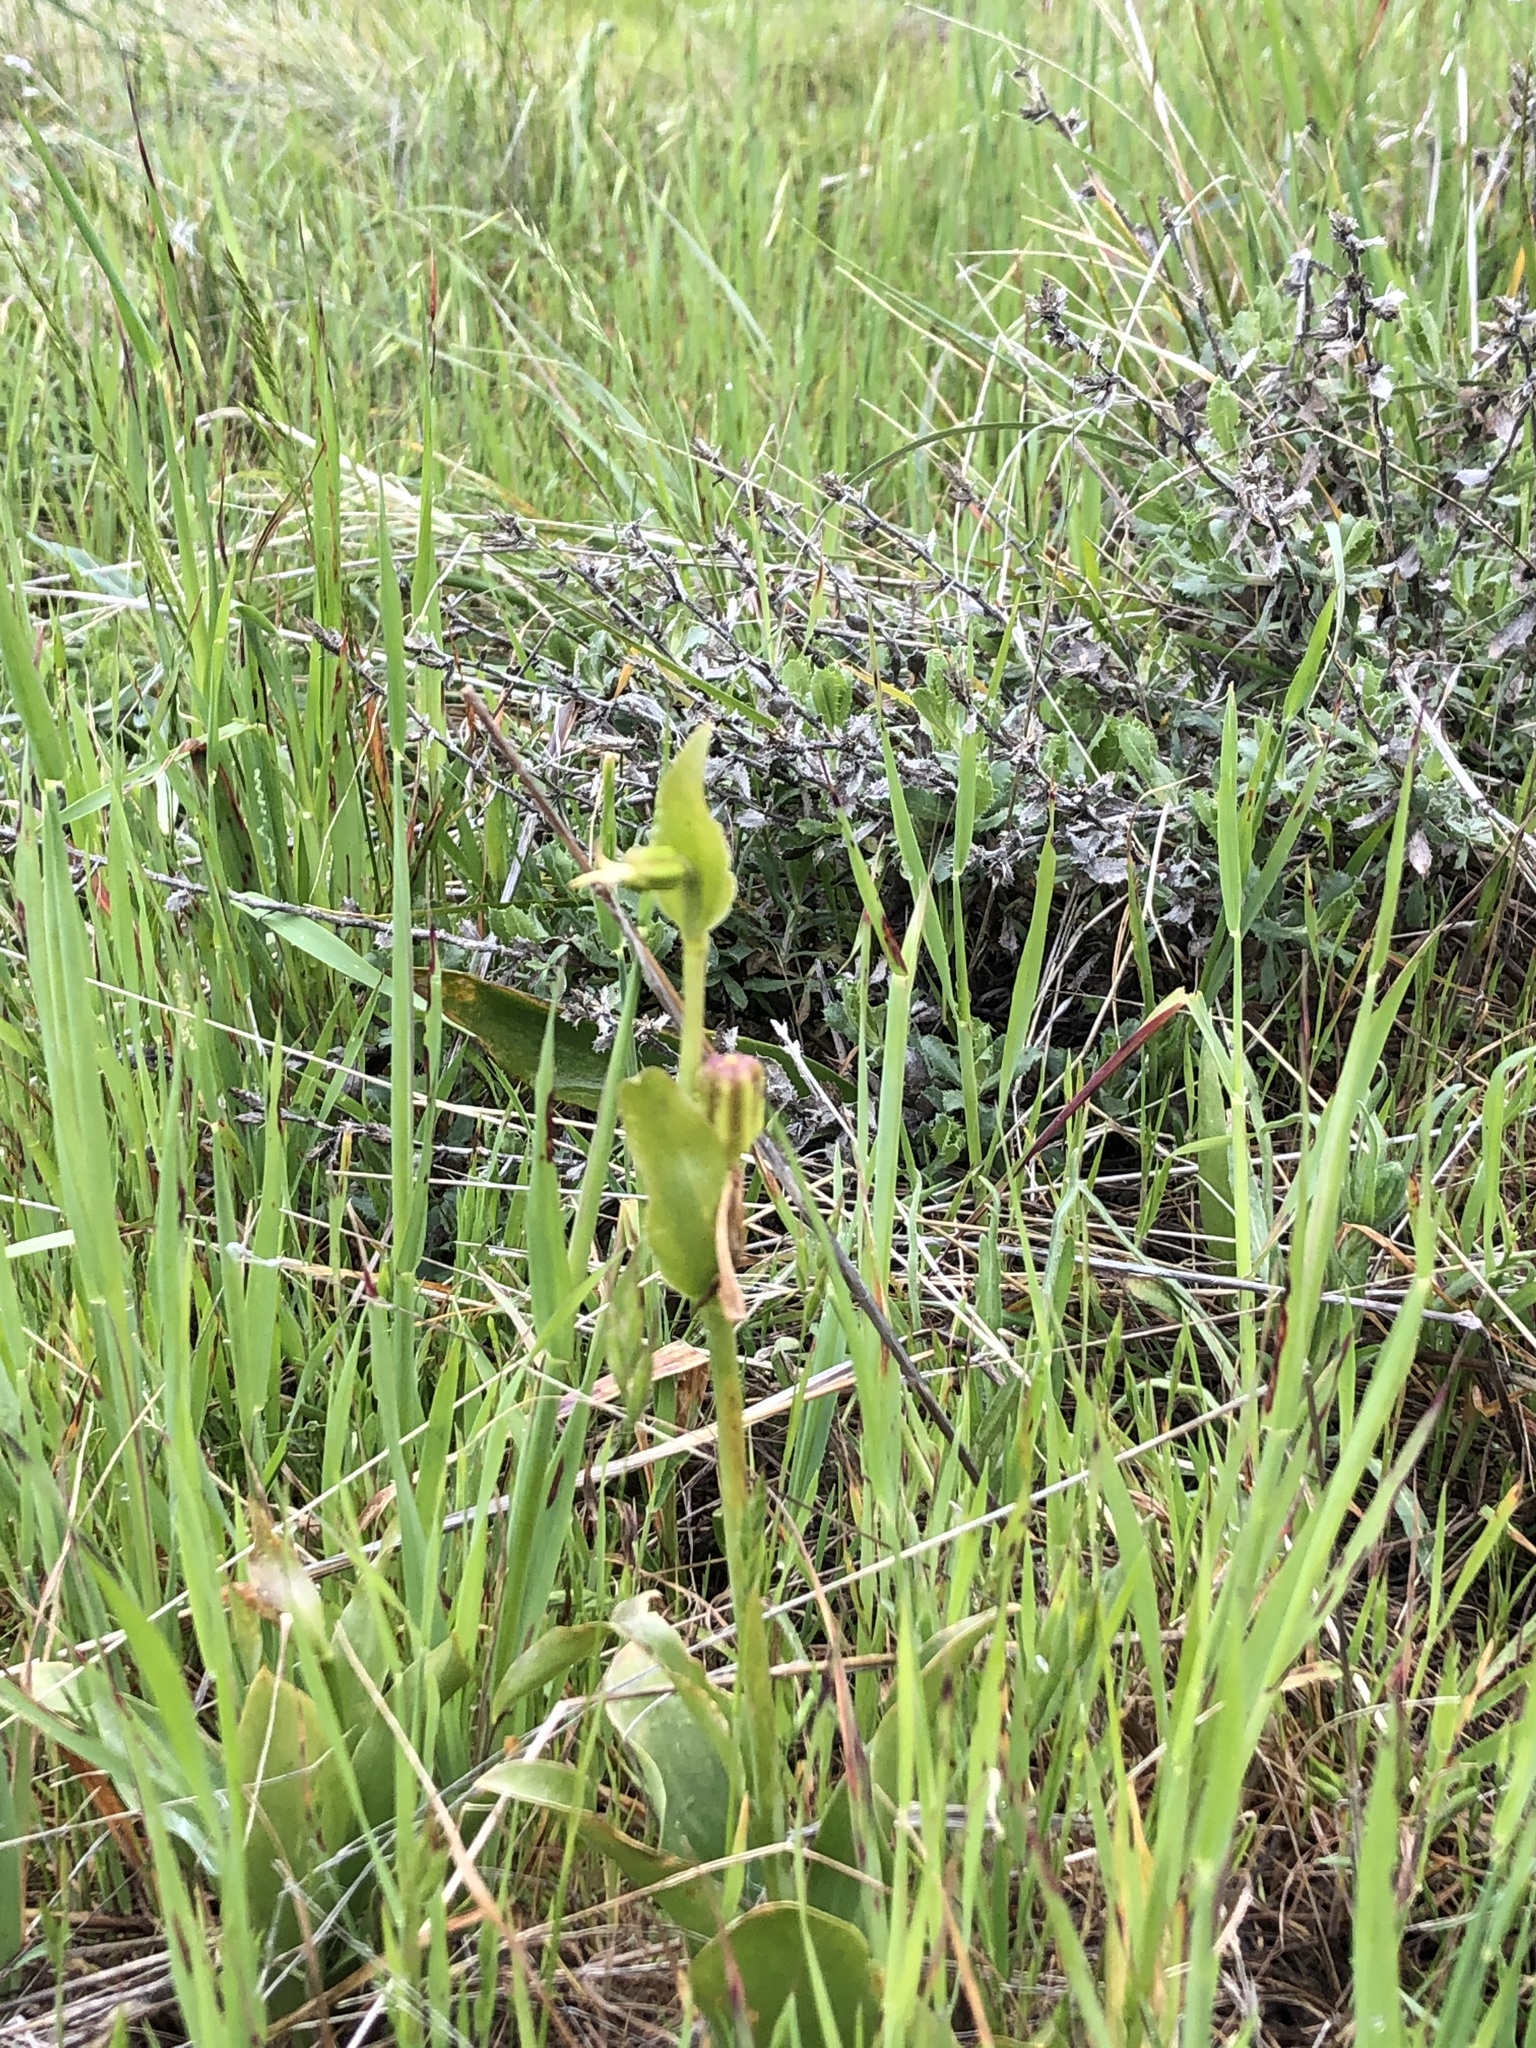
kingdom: Plantae
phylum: Tracheophyta
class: Liliopsida
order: Liliales
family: Liliaceae
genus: Fritillaria
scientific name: Fritillaria biflora
